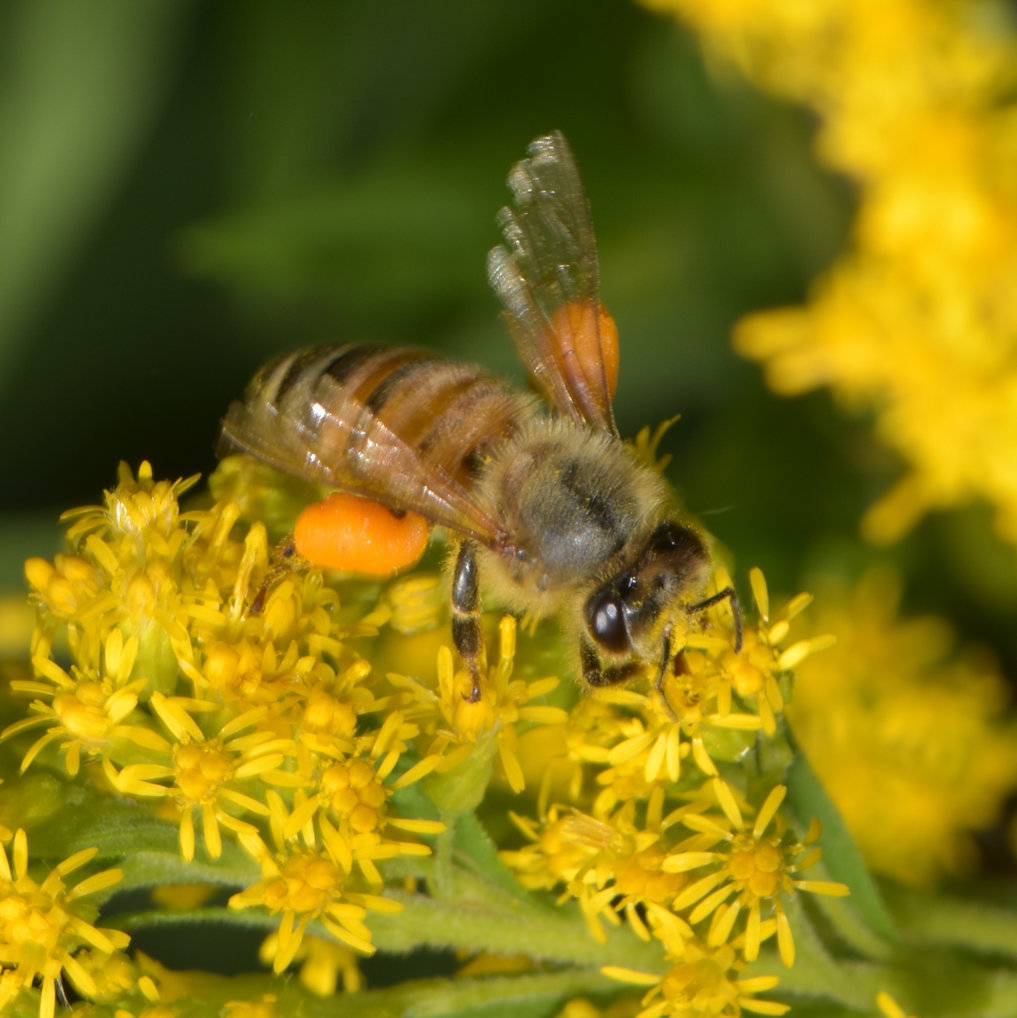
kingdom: Animalia
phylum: Arthropoda
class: Insecta
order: Hymenoptera
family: Apidae
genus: Apis
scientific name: Apis mellifera
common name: Honey bee
